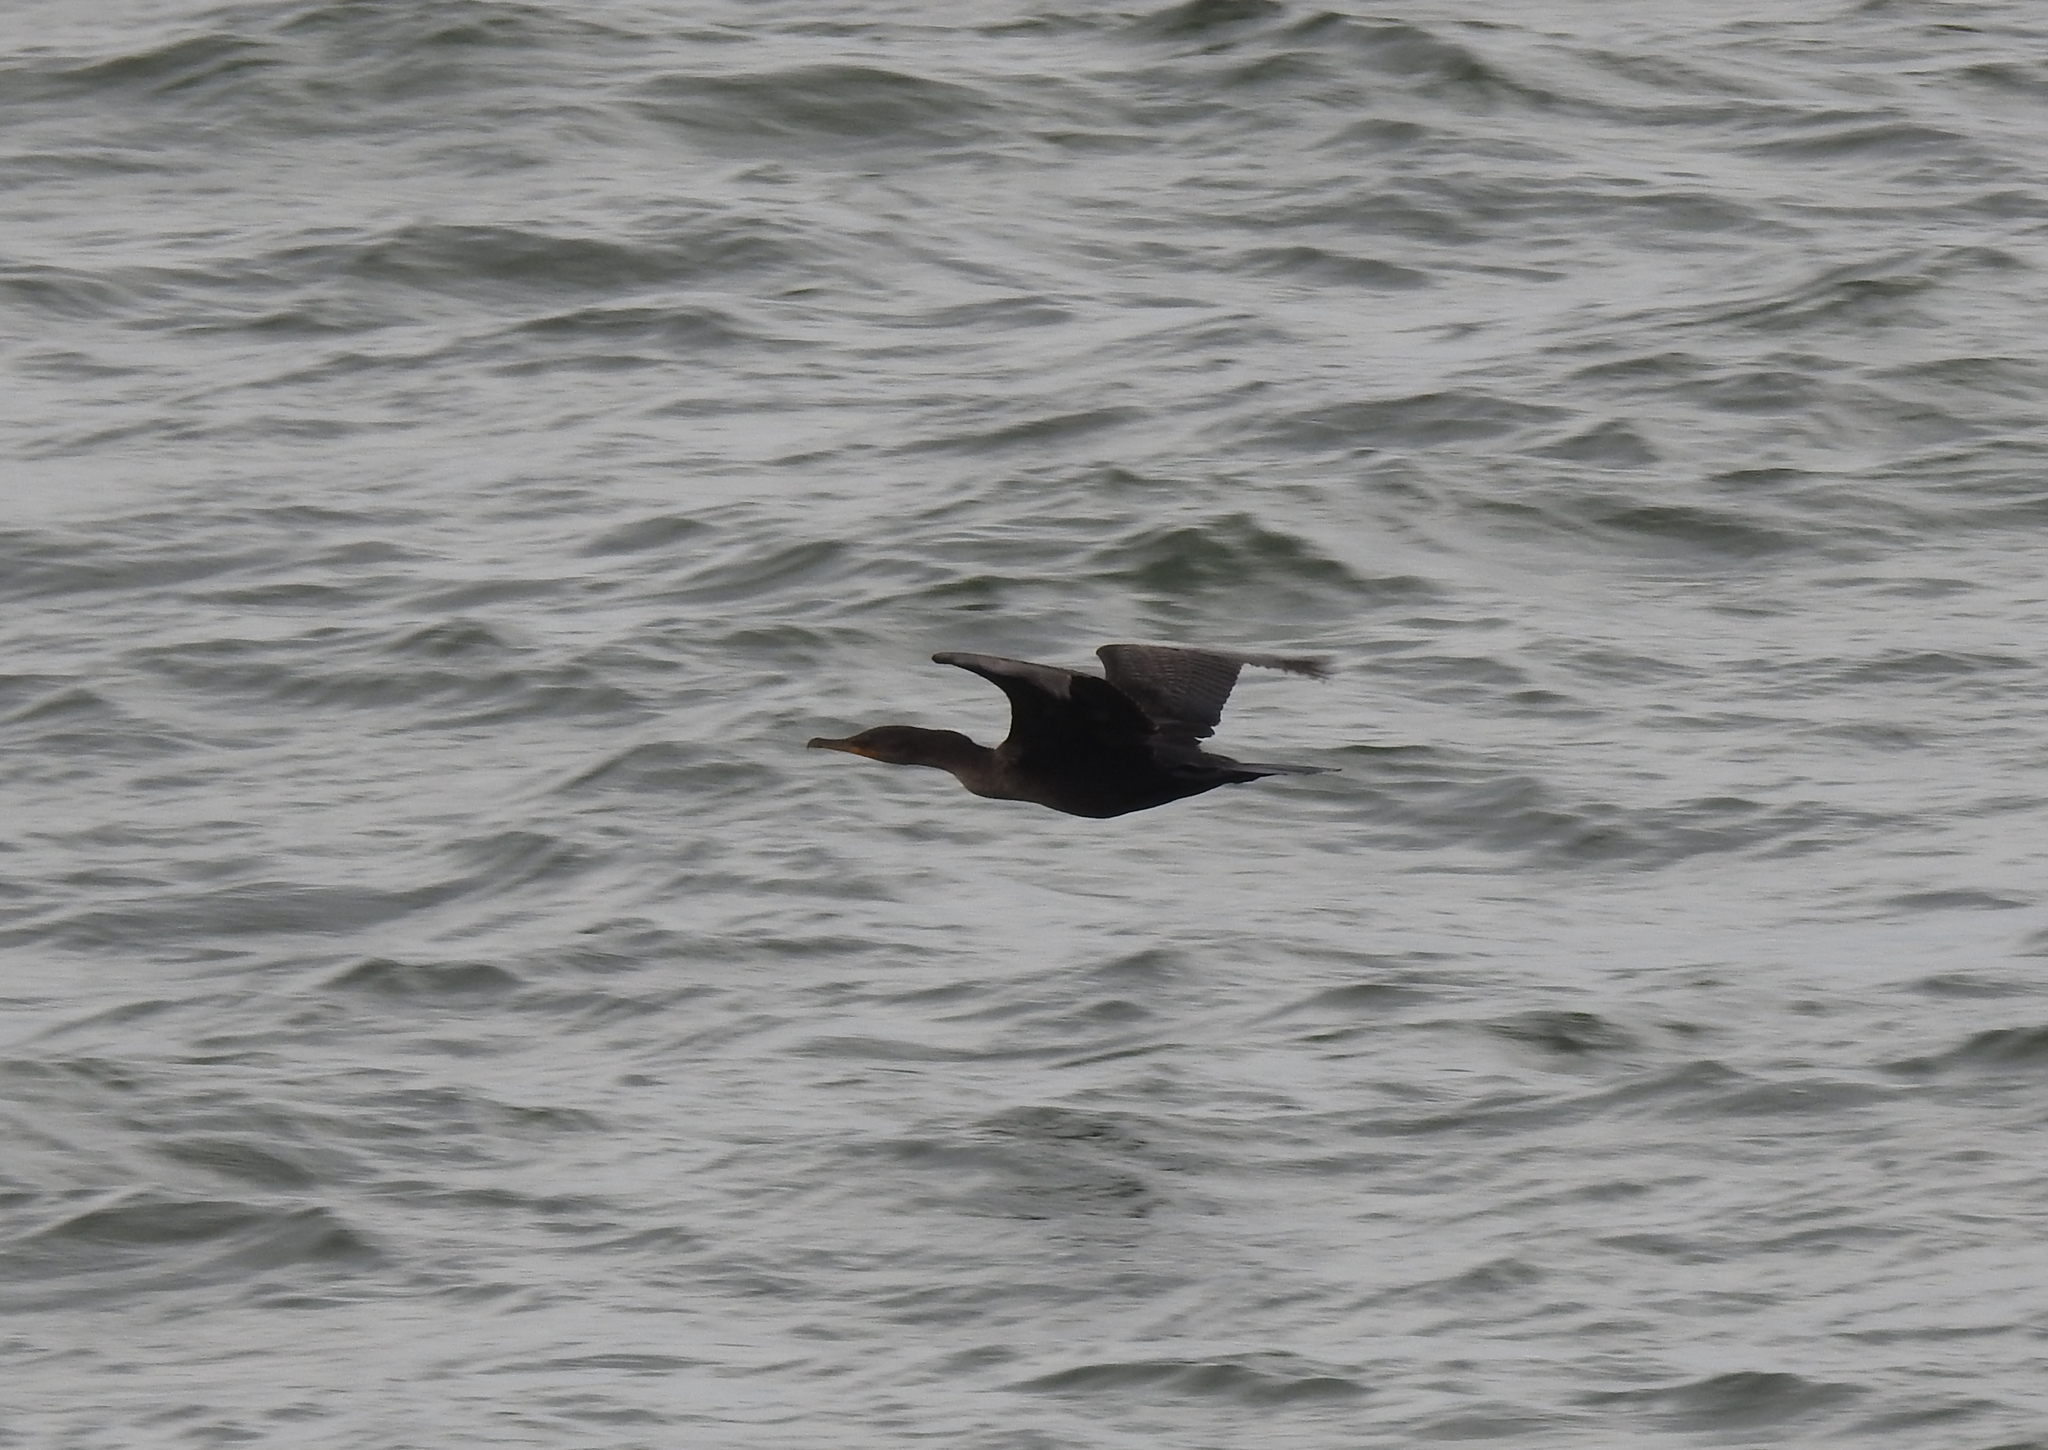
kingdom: Animalia
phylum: Chordata
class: Aves
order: Suliformes
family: Phalacrocoracidae
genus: Phalacrocorax
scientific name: Phalacrocorax auritus
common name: Double-crested cormorant
